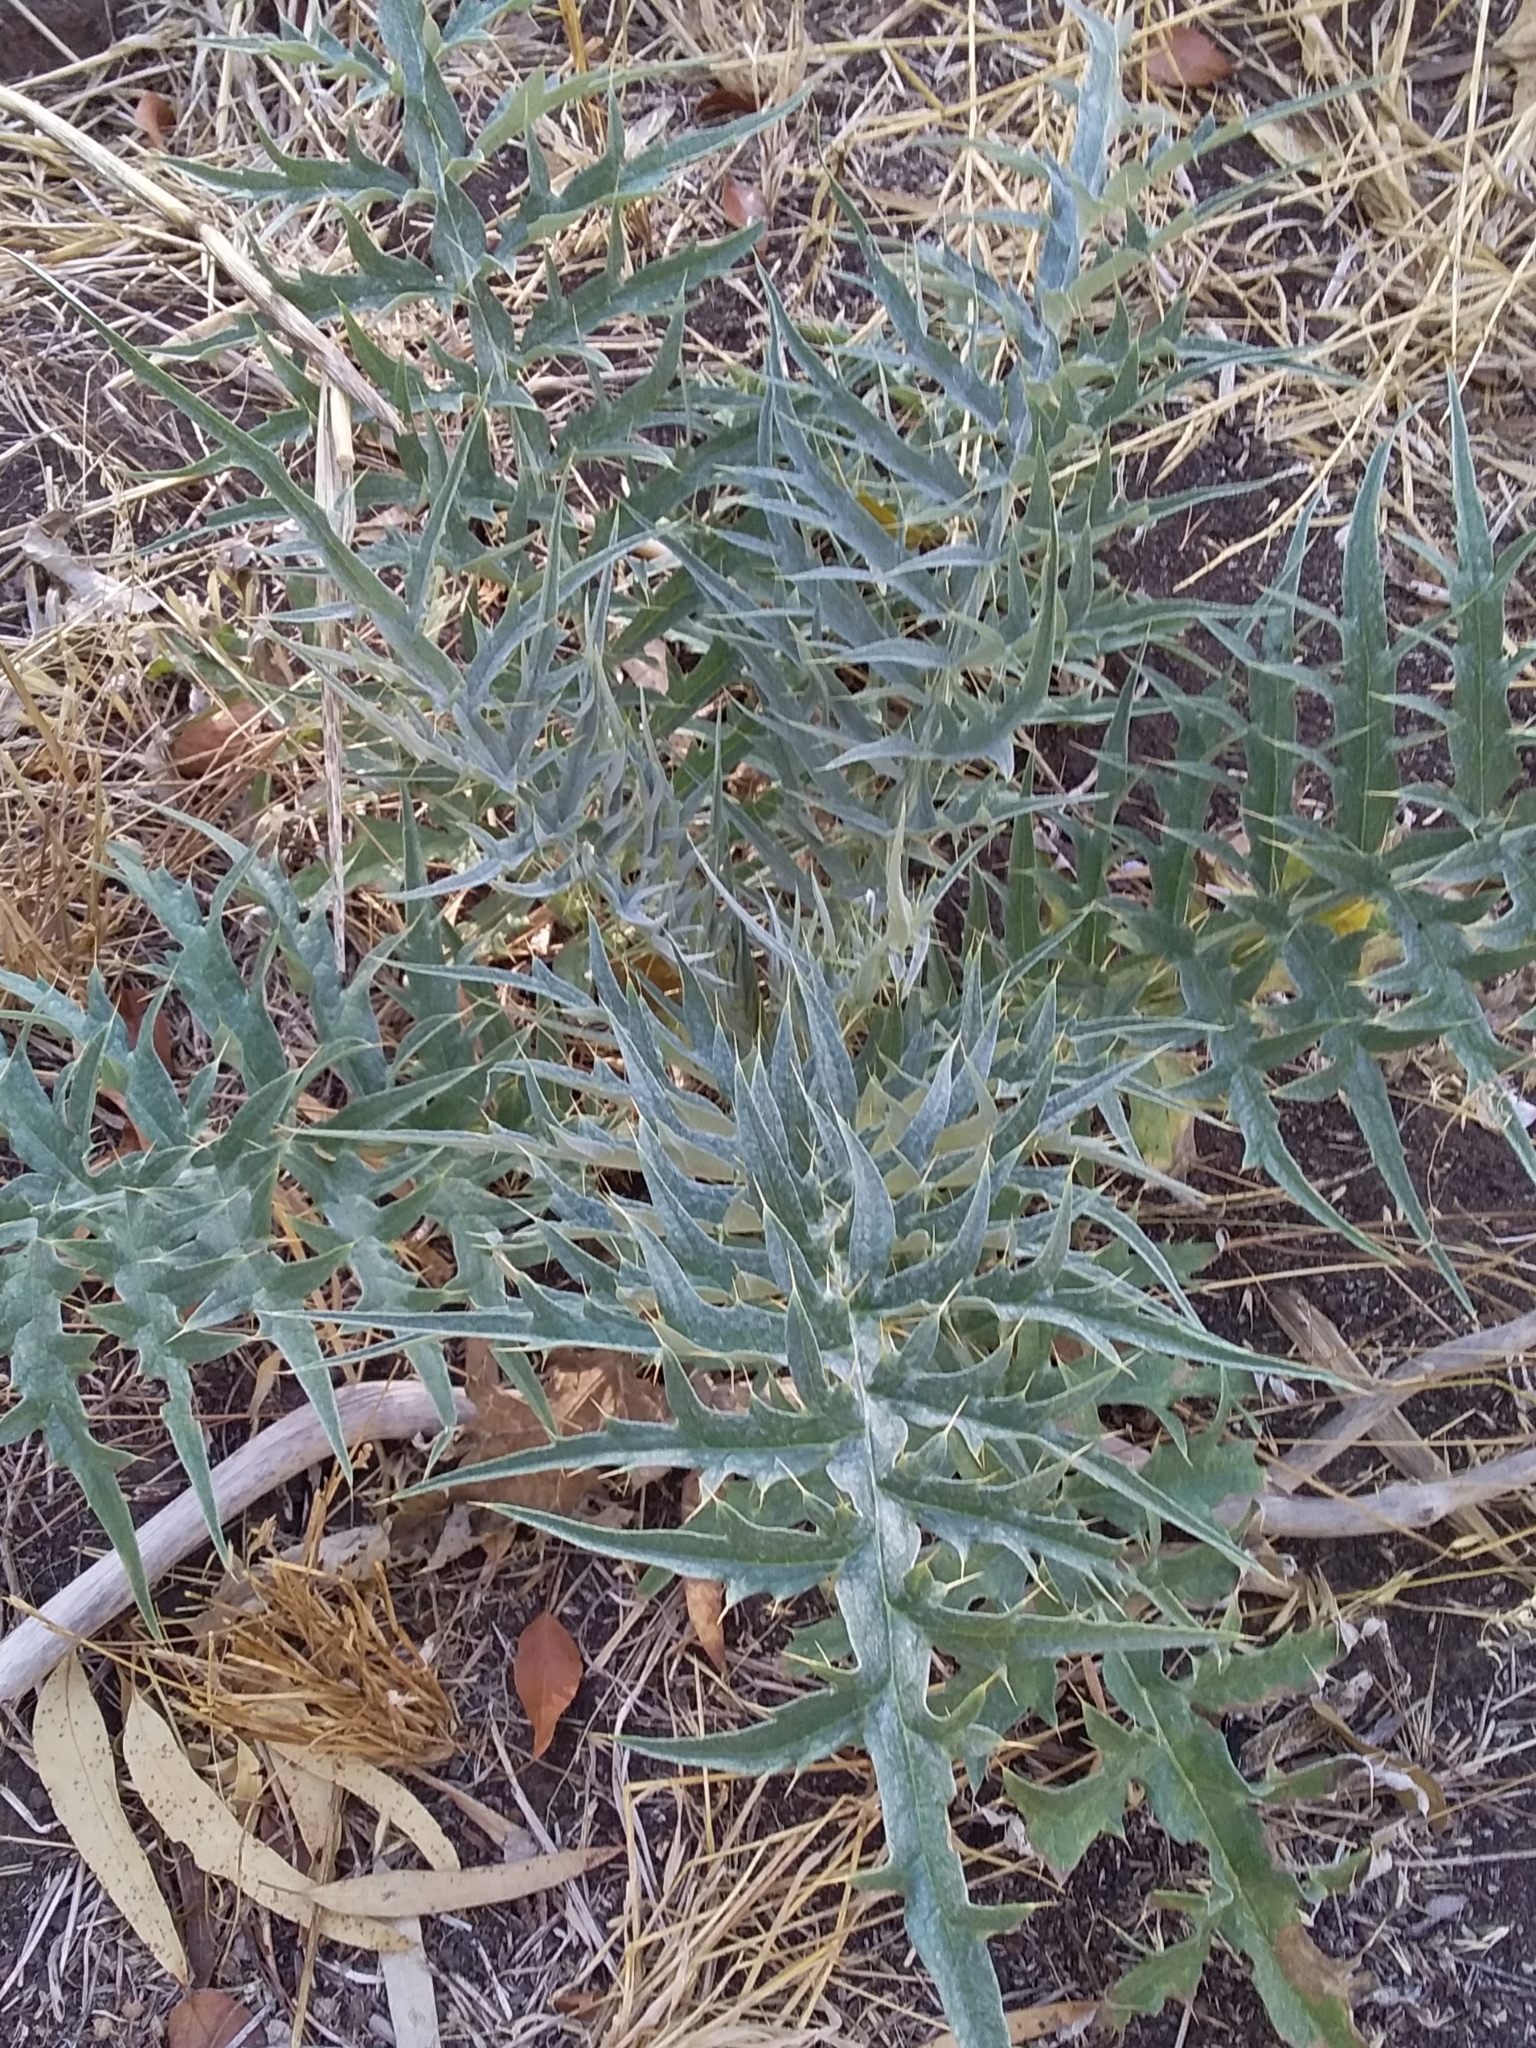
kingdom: Plantae
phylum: Tracheophyta
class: Magnoliopsida
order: Asterales
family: Asteraceae
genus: Cynara
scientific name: Cynara cardunculus
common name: Globe artichoke
